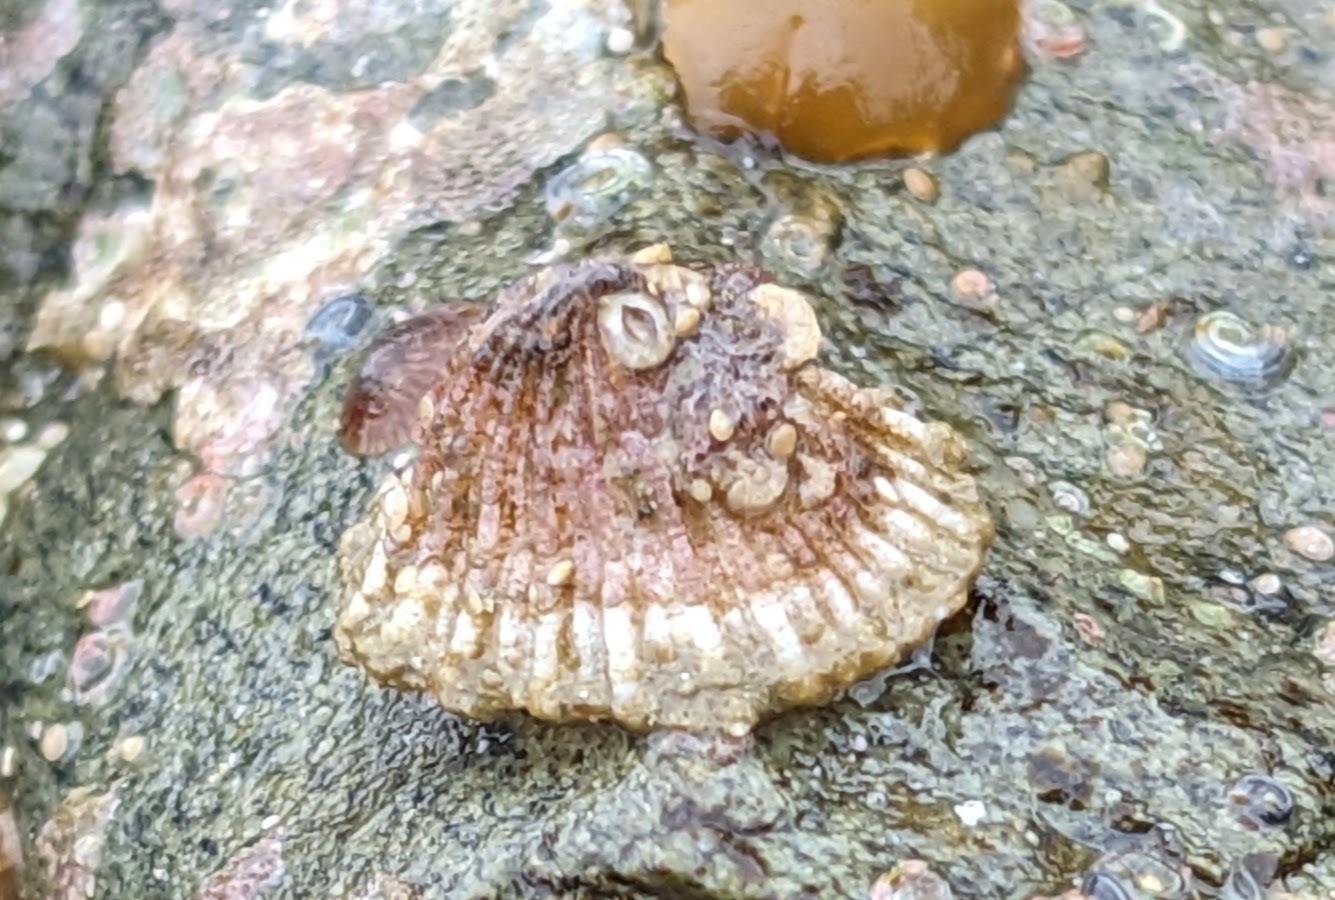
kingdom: Animalia
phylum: Mollusca
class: Gastropoda
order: Lepetellida
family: Fissurellidae
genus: Puncturella
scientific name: Puncturella cucullata
